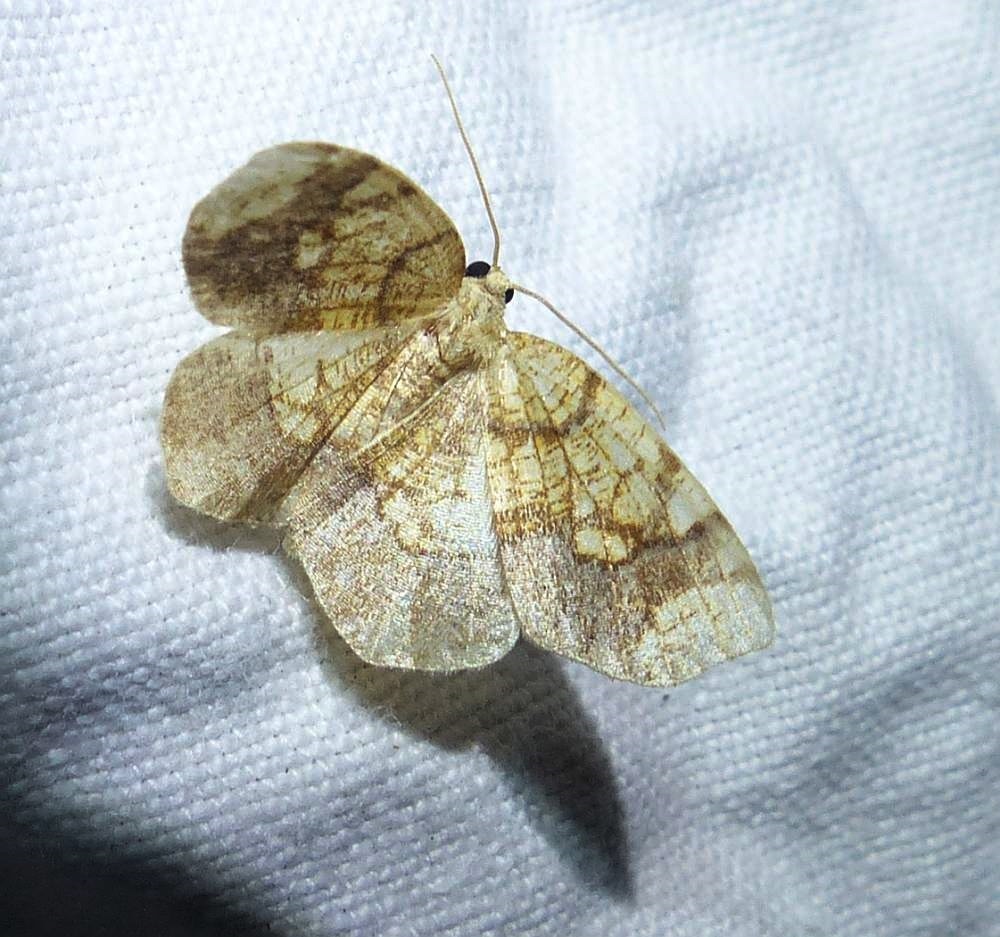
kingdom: Animalia
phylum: Arthropoda
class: Insecta
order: Lepidoptera
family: Geometridae
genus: Nematocampa
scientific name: Nematocampa resistaria
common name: Horned spanworm moth
